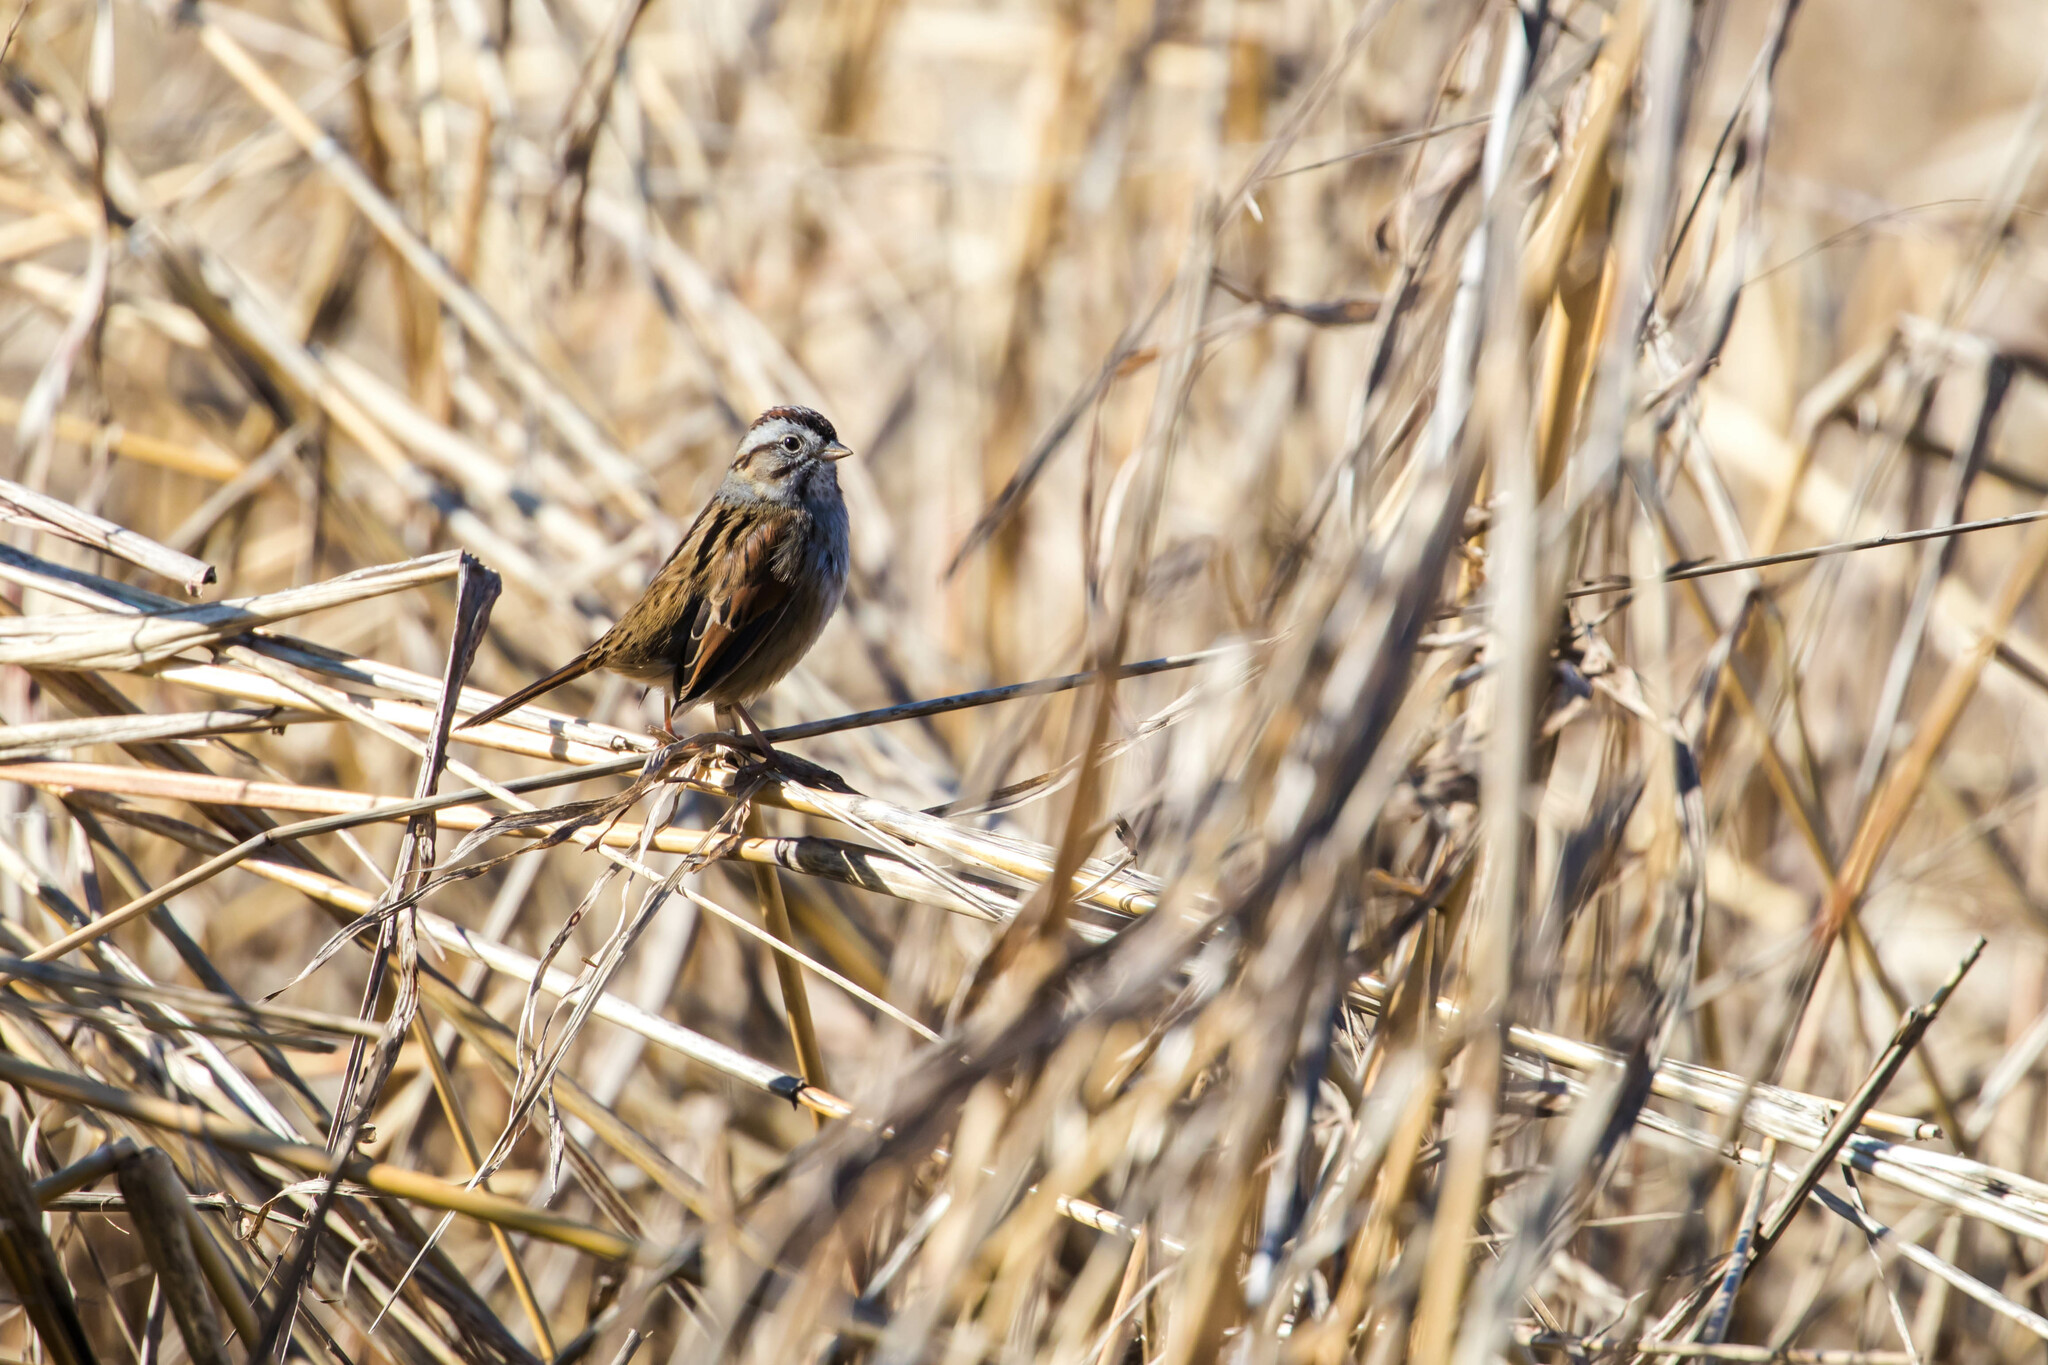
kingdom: Animalia
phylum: Chordata
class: Aves
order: Passeriformes
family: Passerellidae
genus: Melospiza
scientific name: Melospiza georgiana
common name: Swamp sparrow
